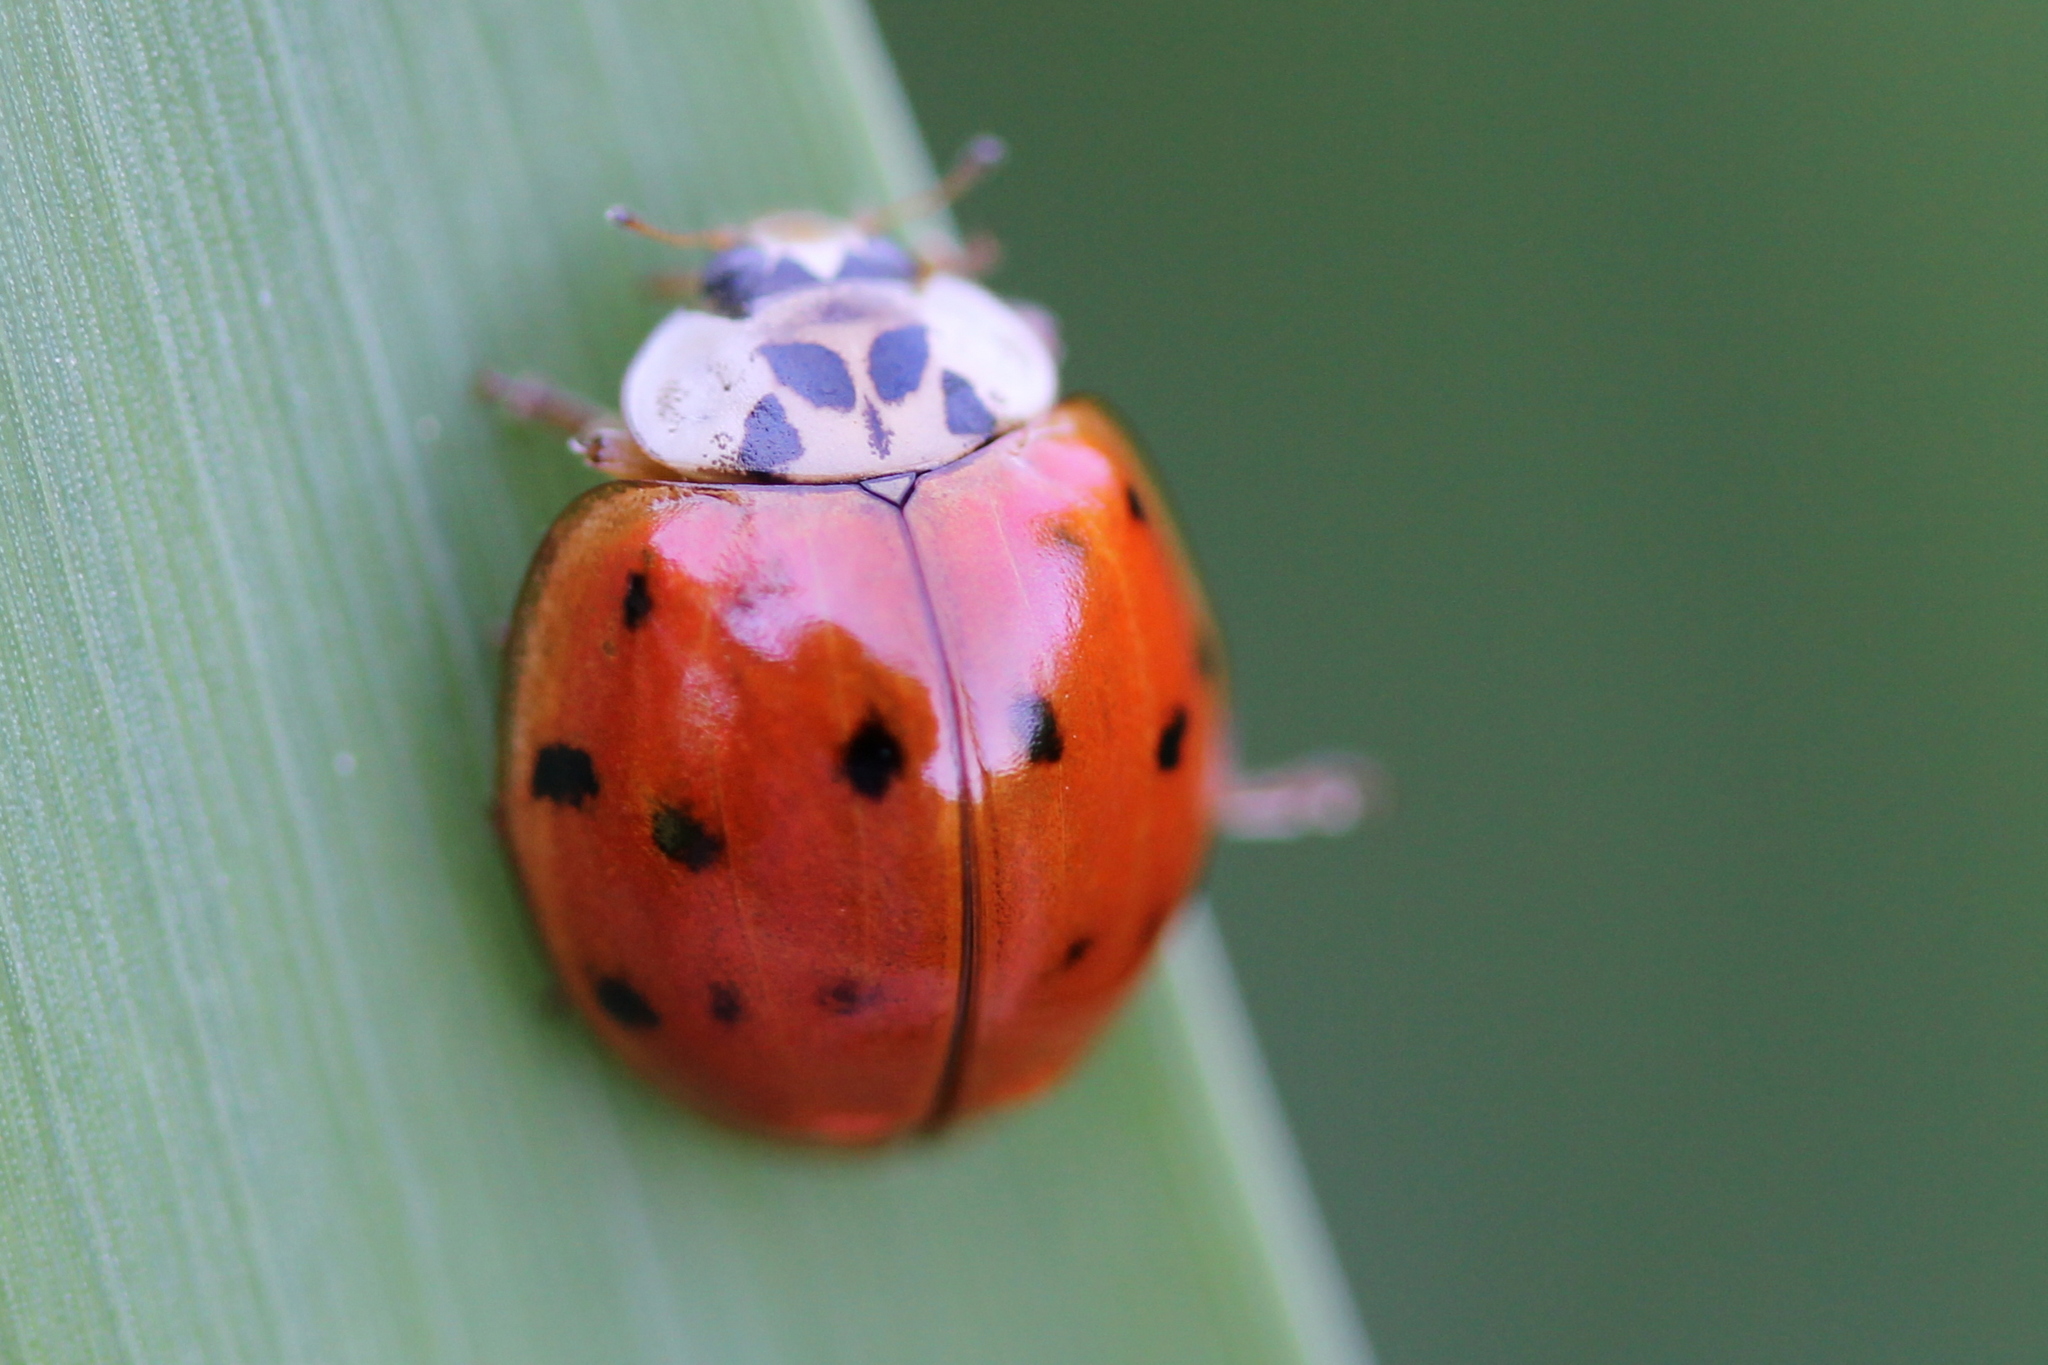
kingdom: Animalia
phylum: Arthropoda
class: Insecta
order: Coleoptera
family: Coccinellidae
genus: Harmonia
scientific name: Harmonia axyridis
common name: Harlequin ladybird
